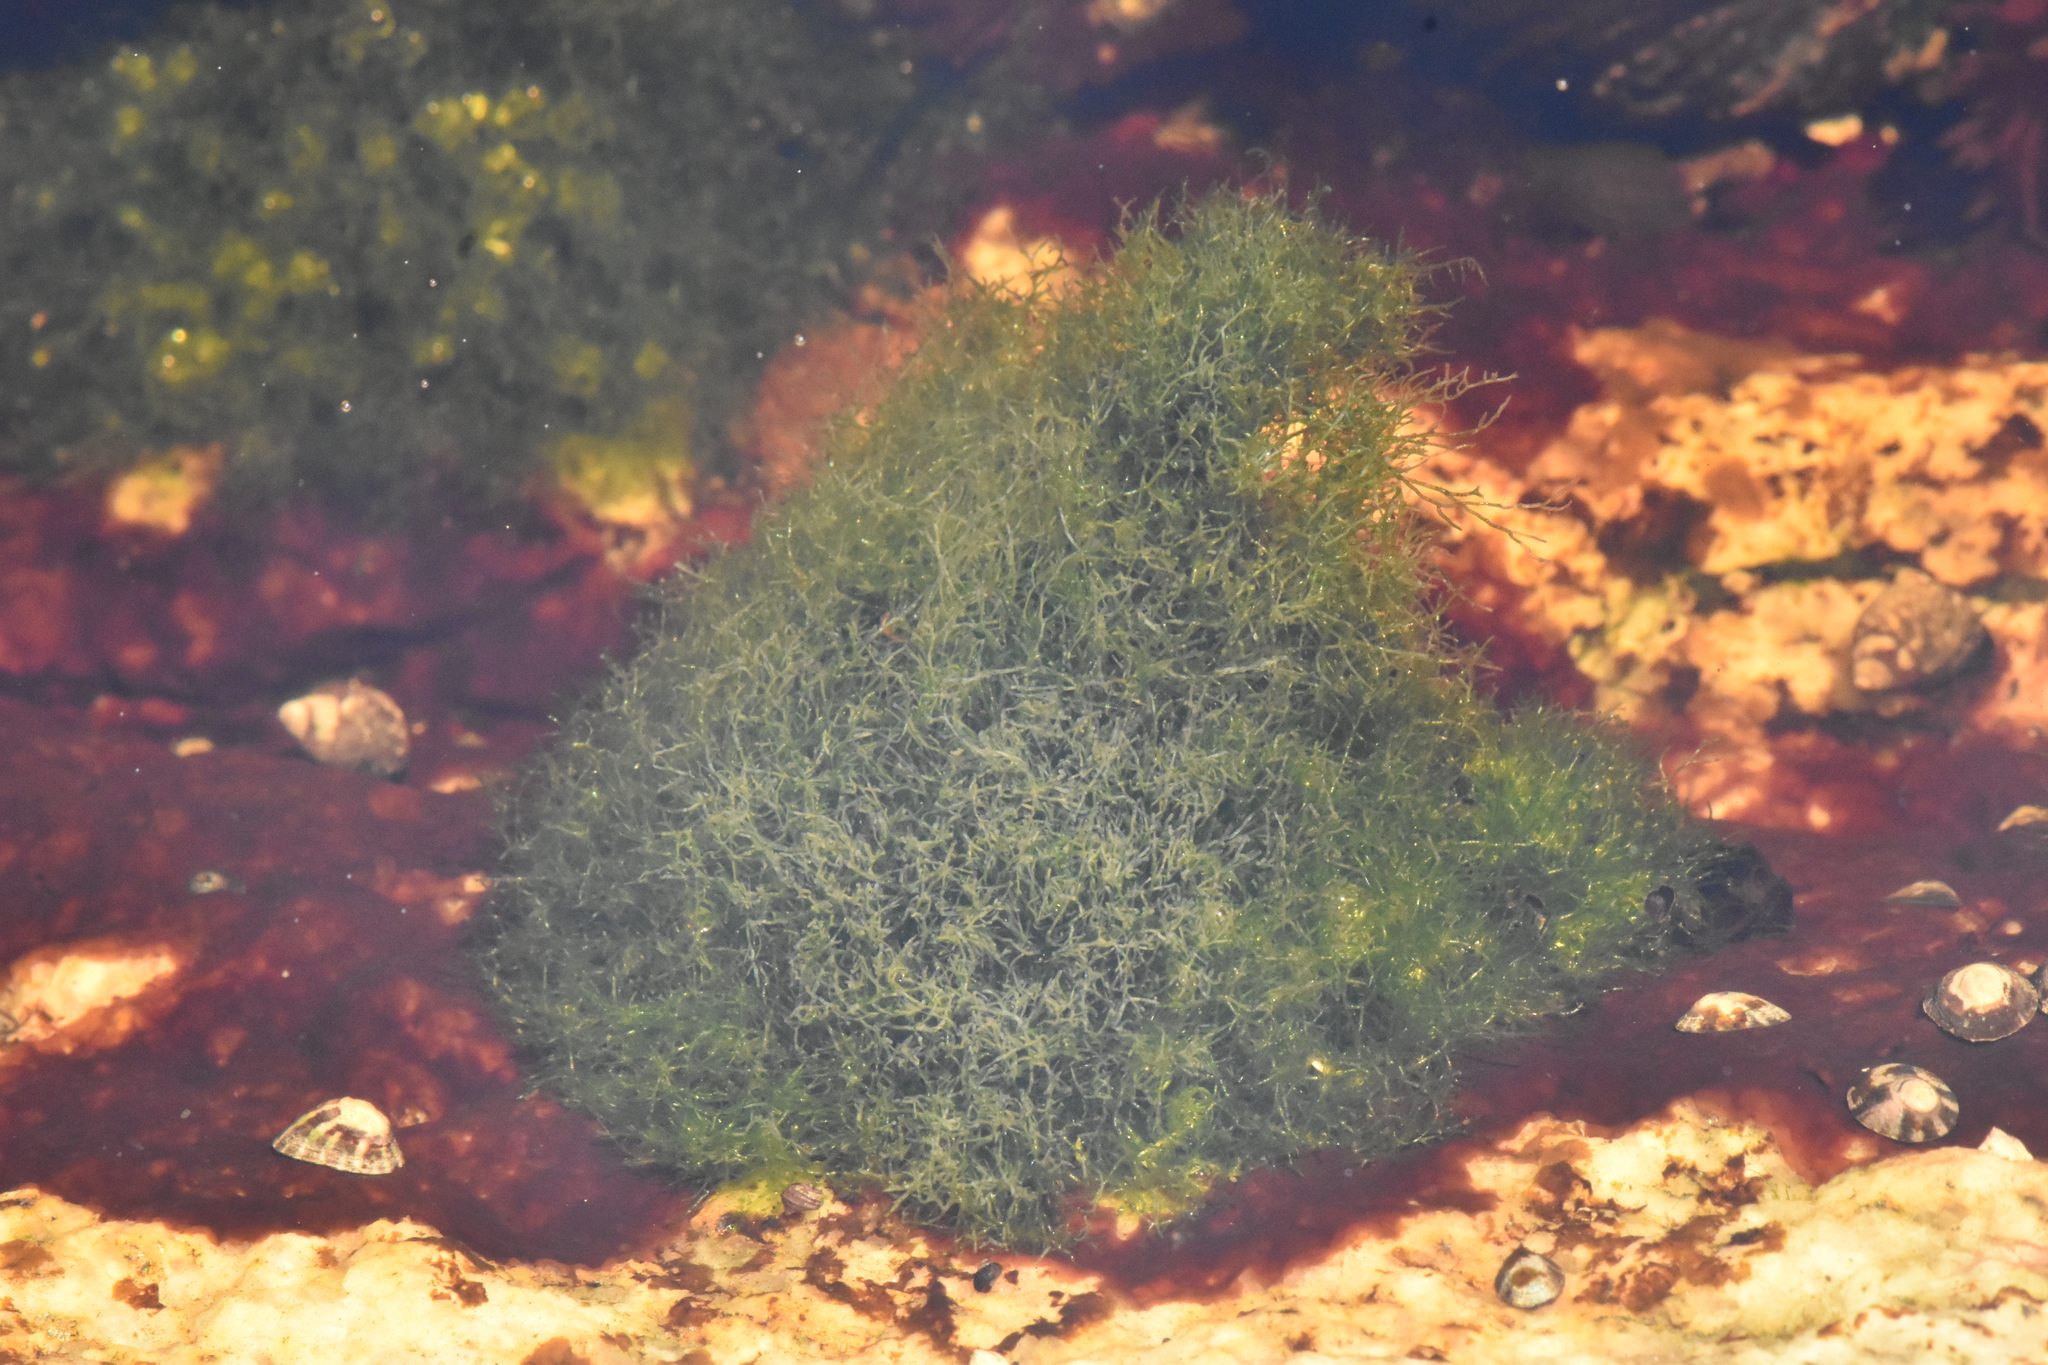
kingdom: Plantae
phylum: Chlorophyta
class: Ulvophyceae
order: Cladophorales
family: Cladophoraceae
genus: Cladophora
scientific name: Cladophora columbiana
